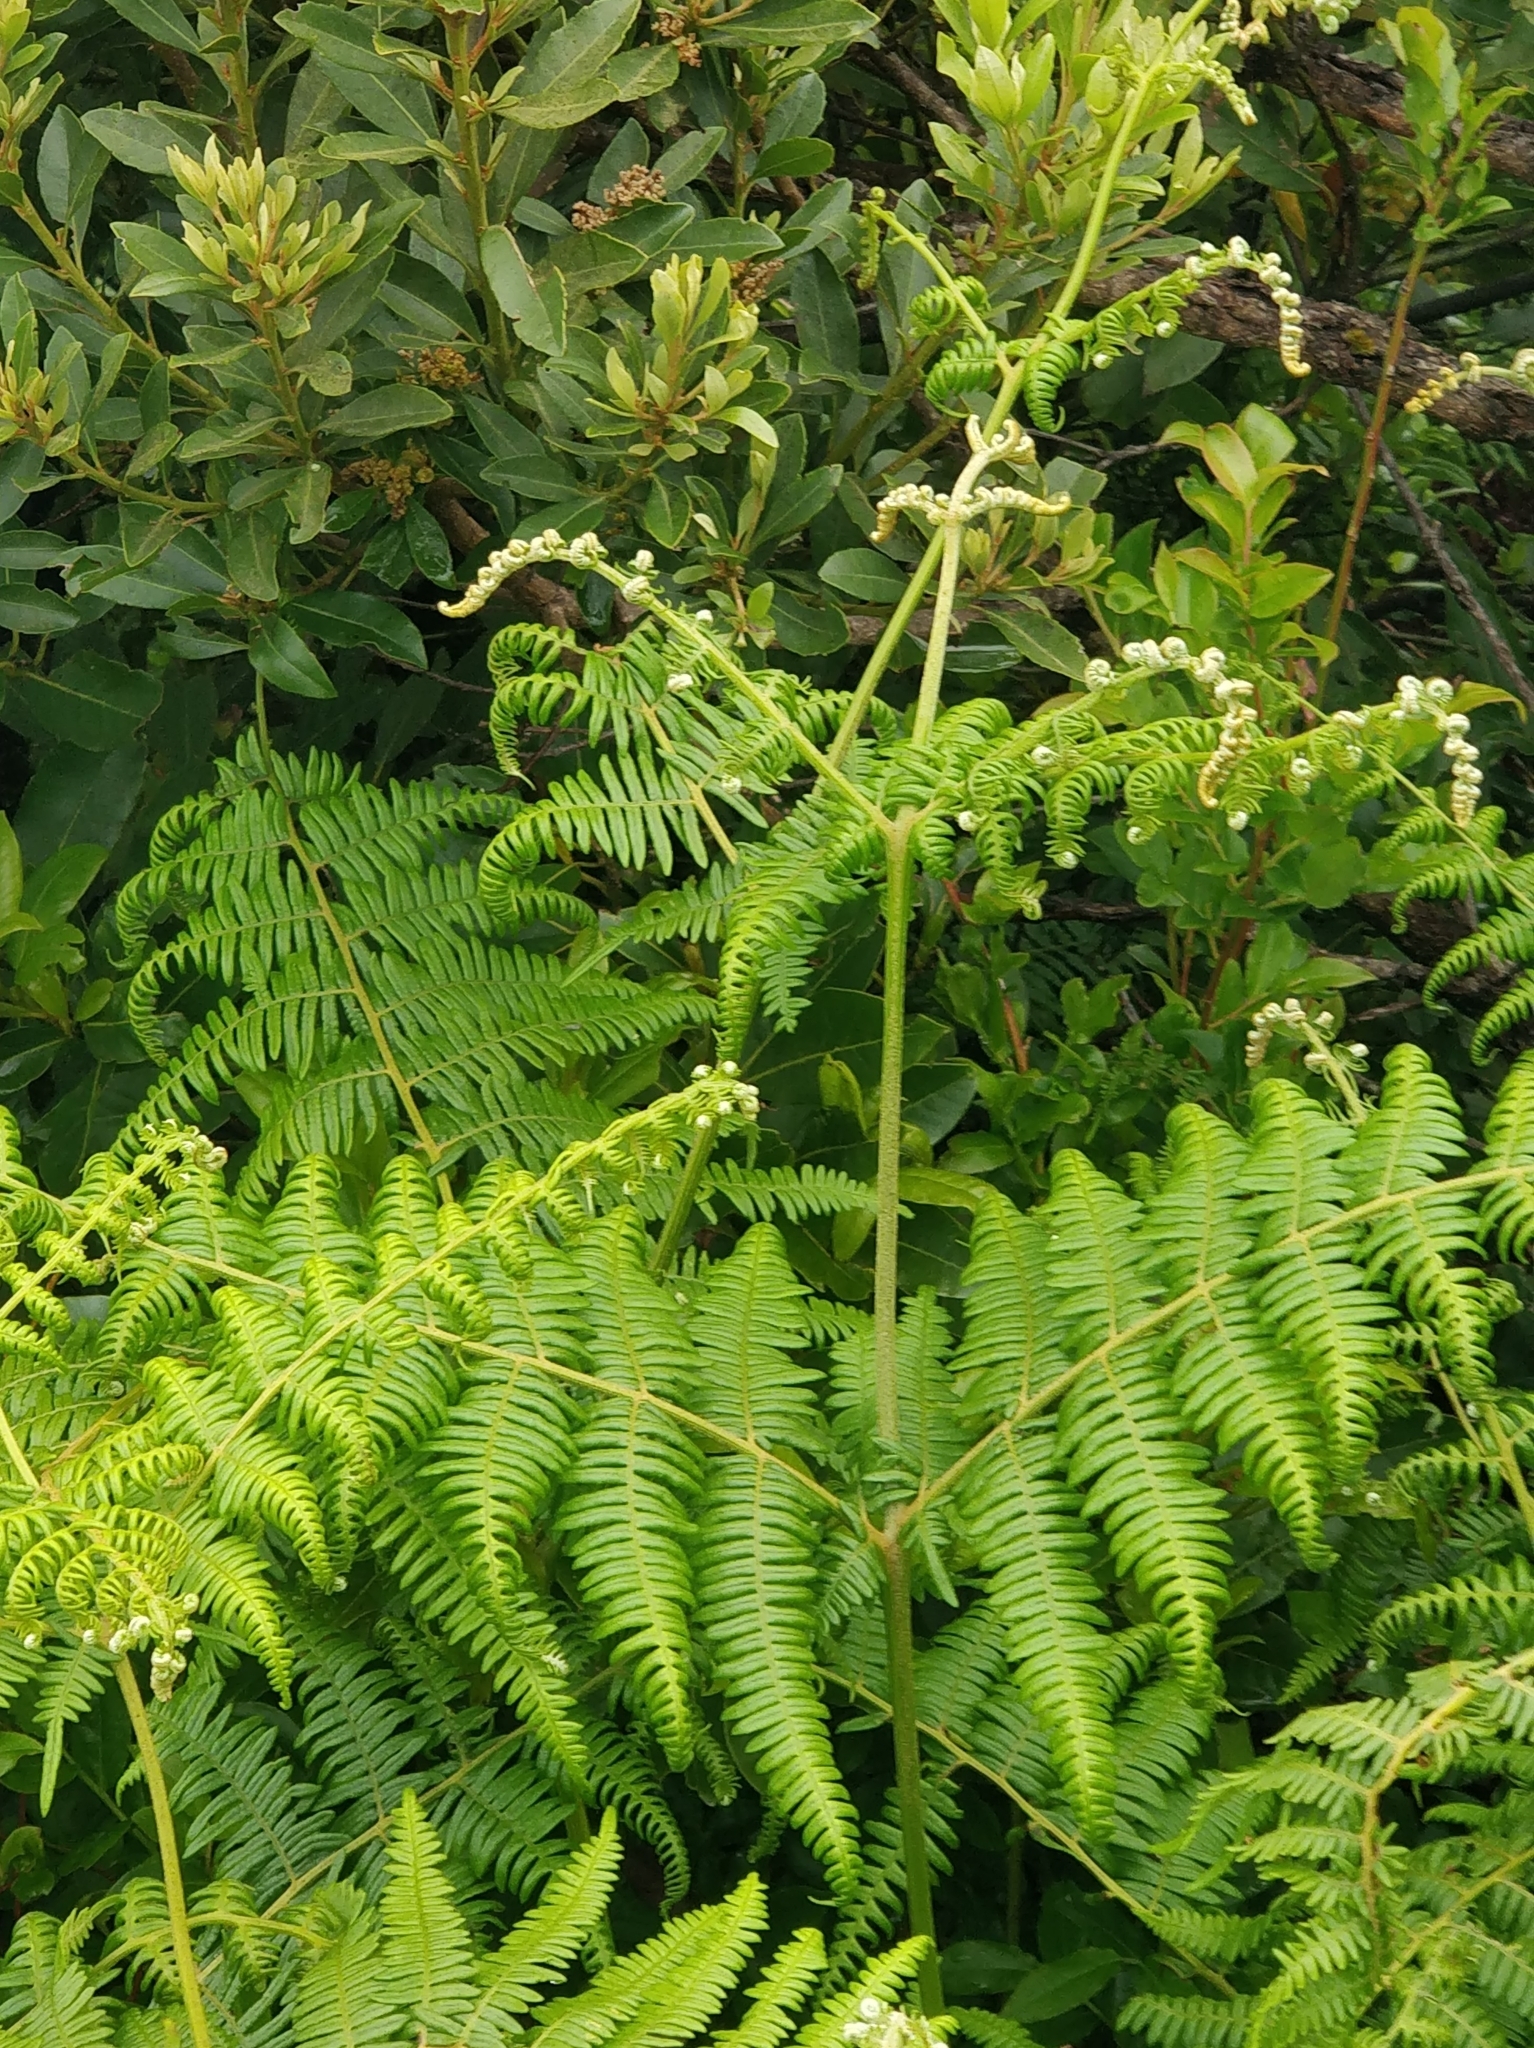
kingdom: Plantae
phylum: Tracheophyta
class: Polypodiopsida
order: Polypodiales
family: Dennstaedtiaceae
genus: Pteridium
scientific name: Pteridium aquilinum
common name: Bracken
